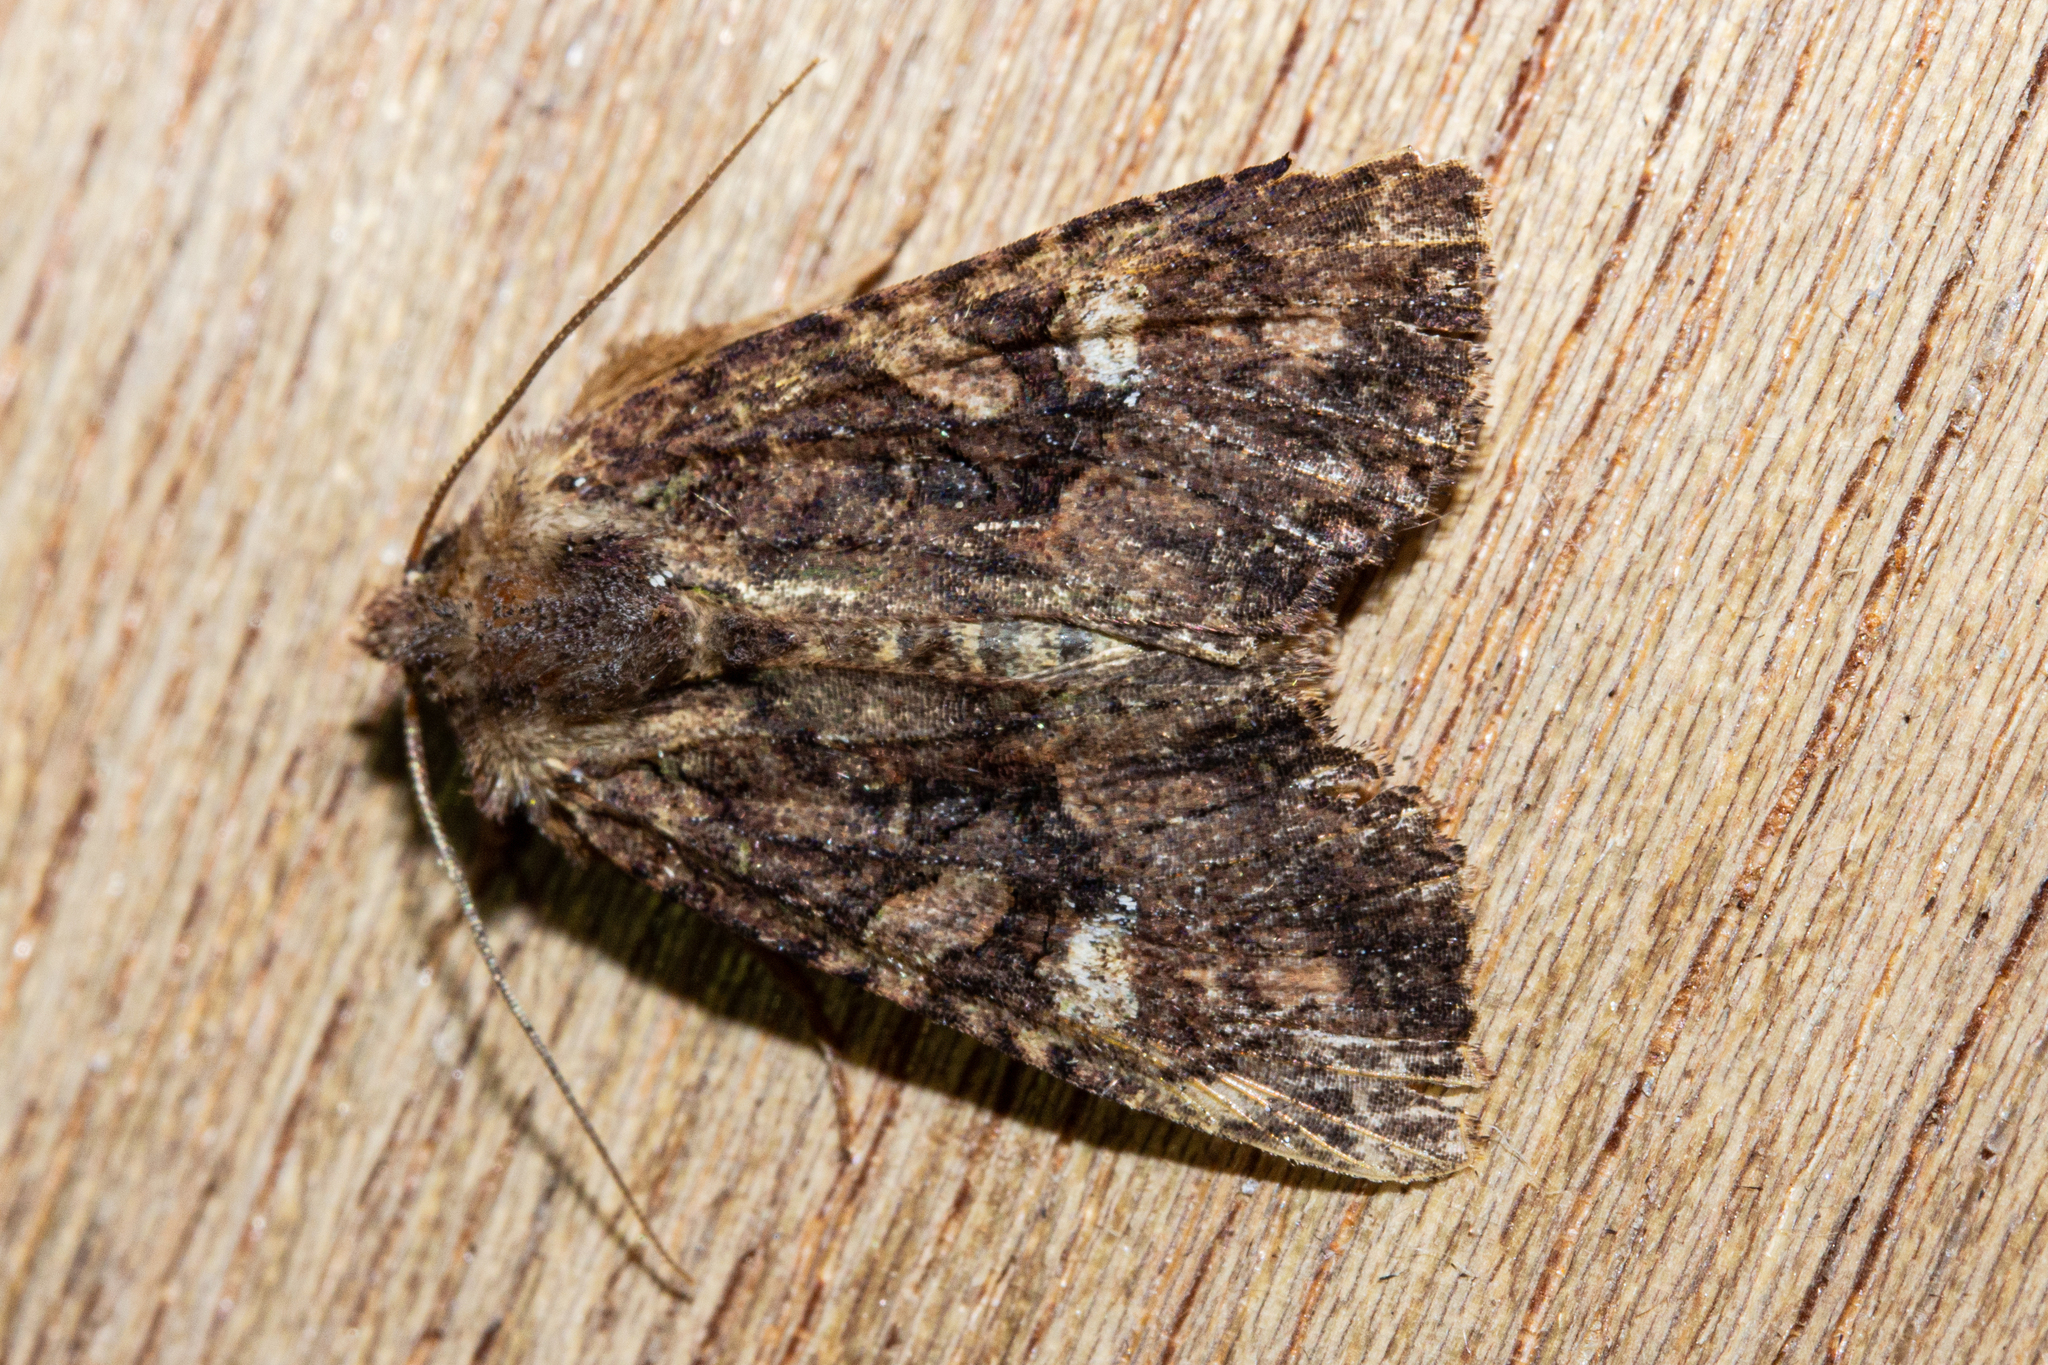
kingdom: Animalia
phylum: Arthropoda
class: Insecta
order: Lepidoptera
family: Noctuidae
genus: Meterana
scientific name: Meterana ochthistis
